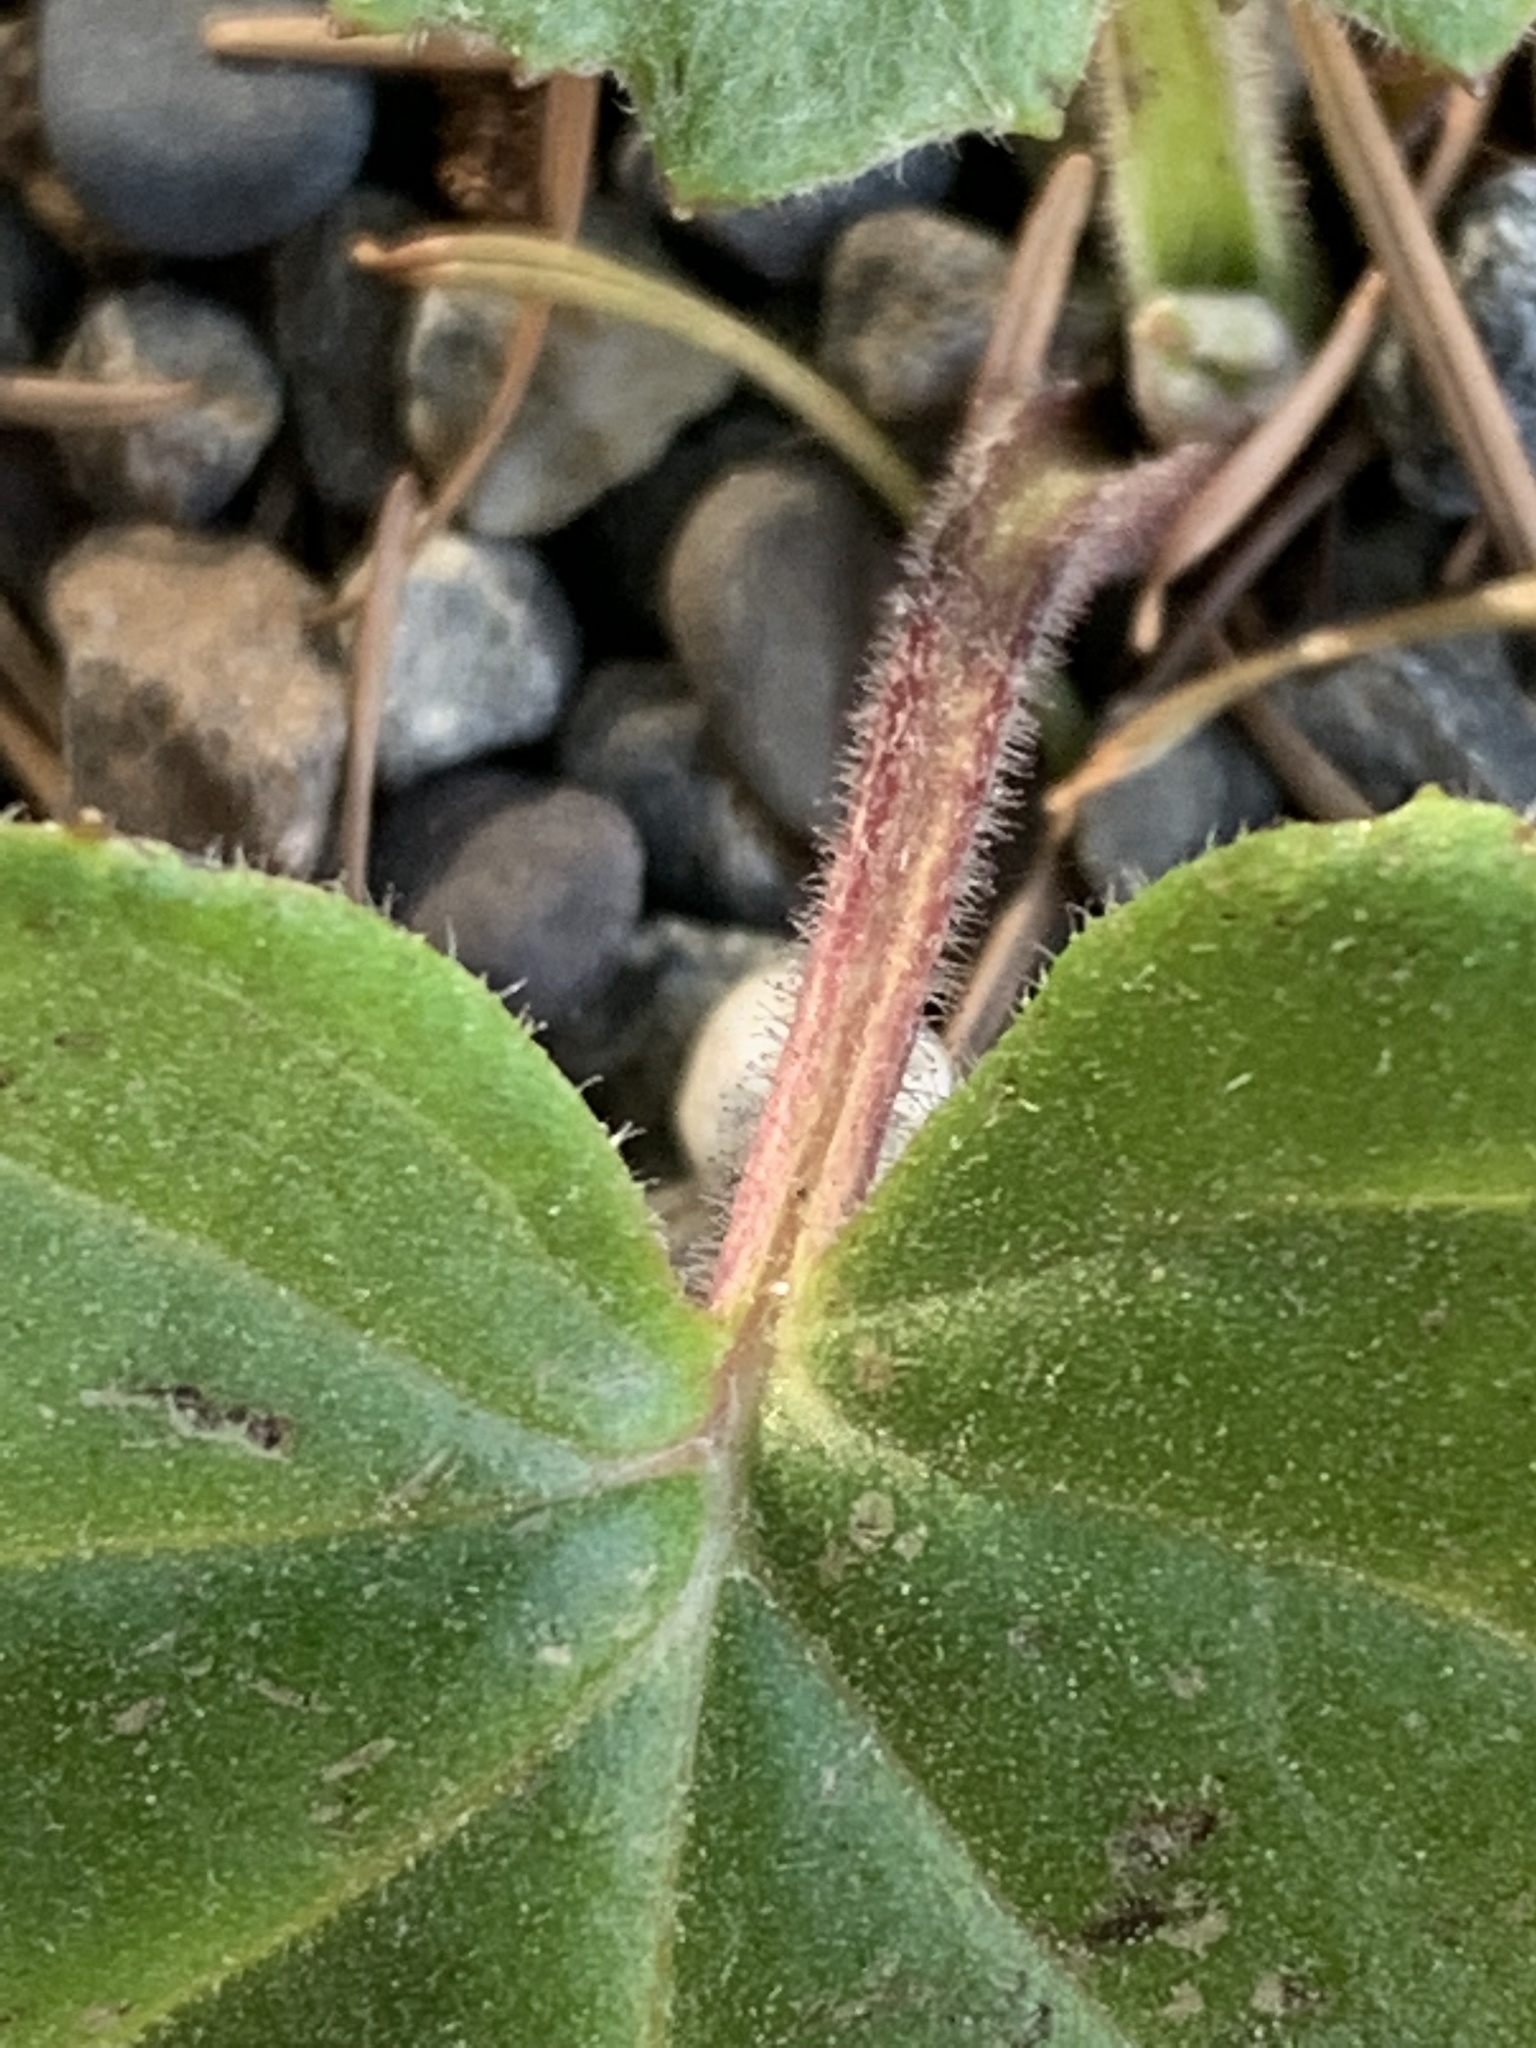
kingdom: Plantae
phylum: Tracheophyta
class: Magnoliopsida
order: Asterales
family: Asteraceae
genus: Tussilago
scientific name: Tussilago farfara
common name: Coltsfoot
